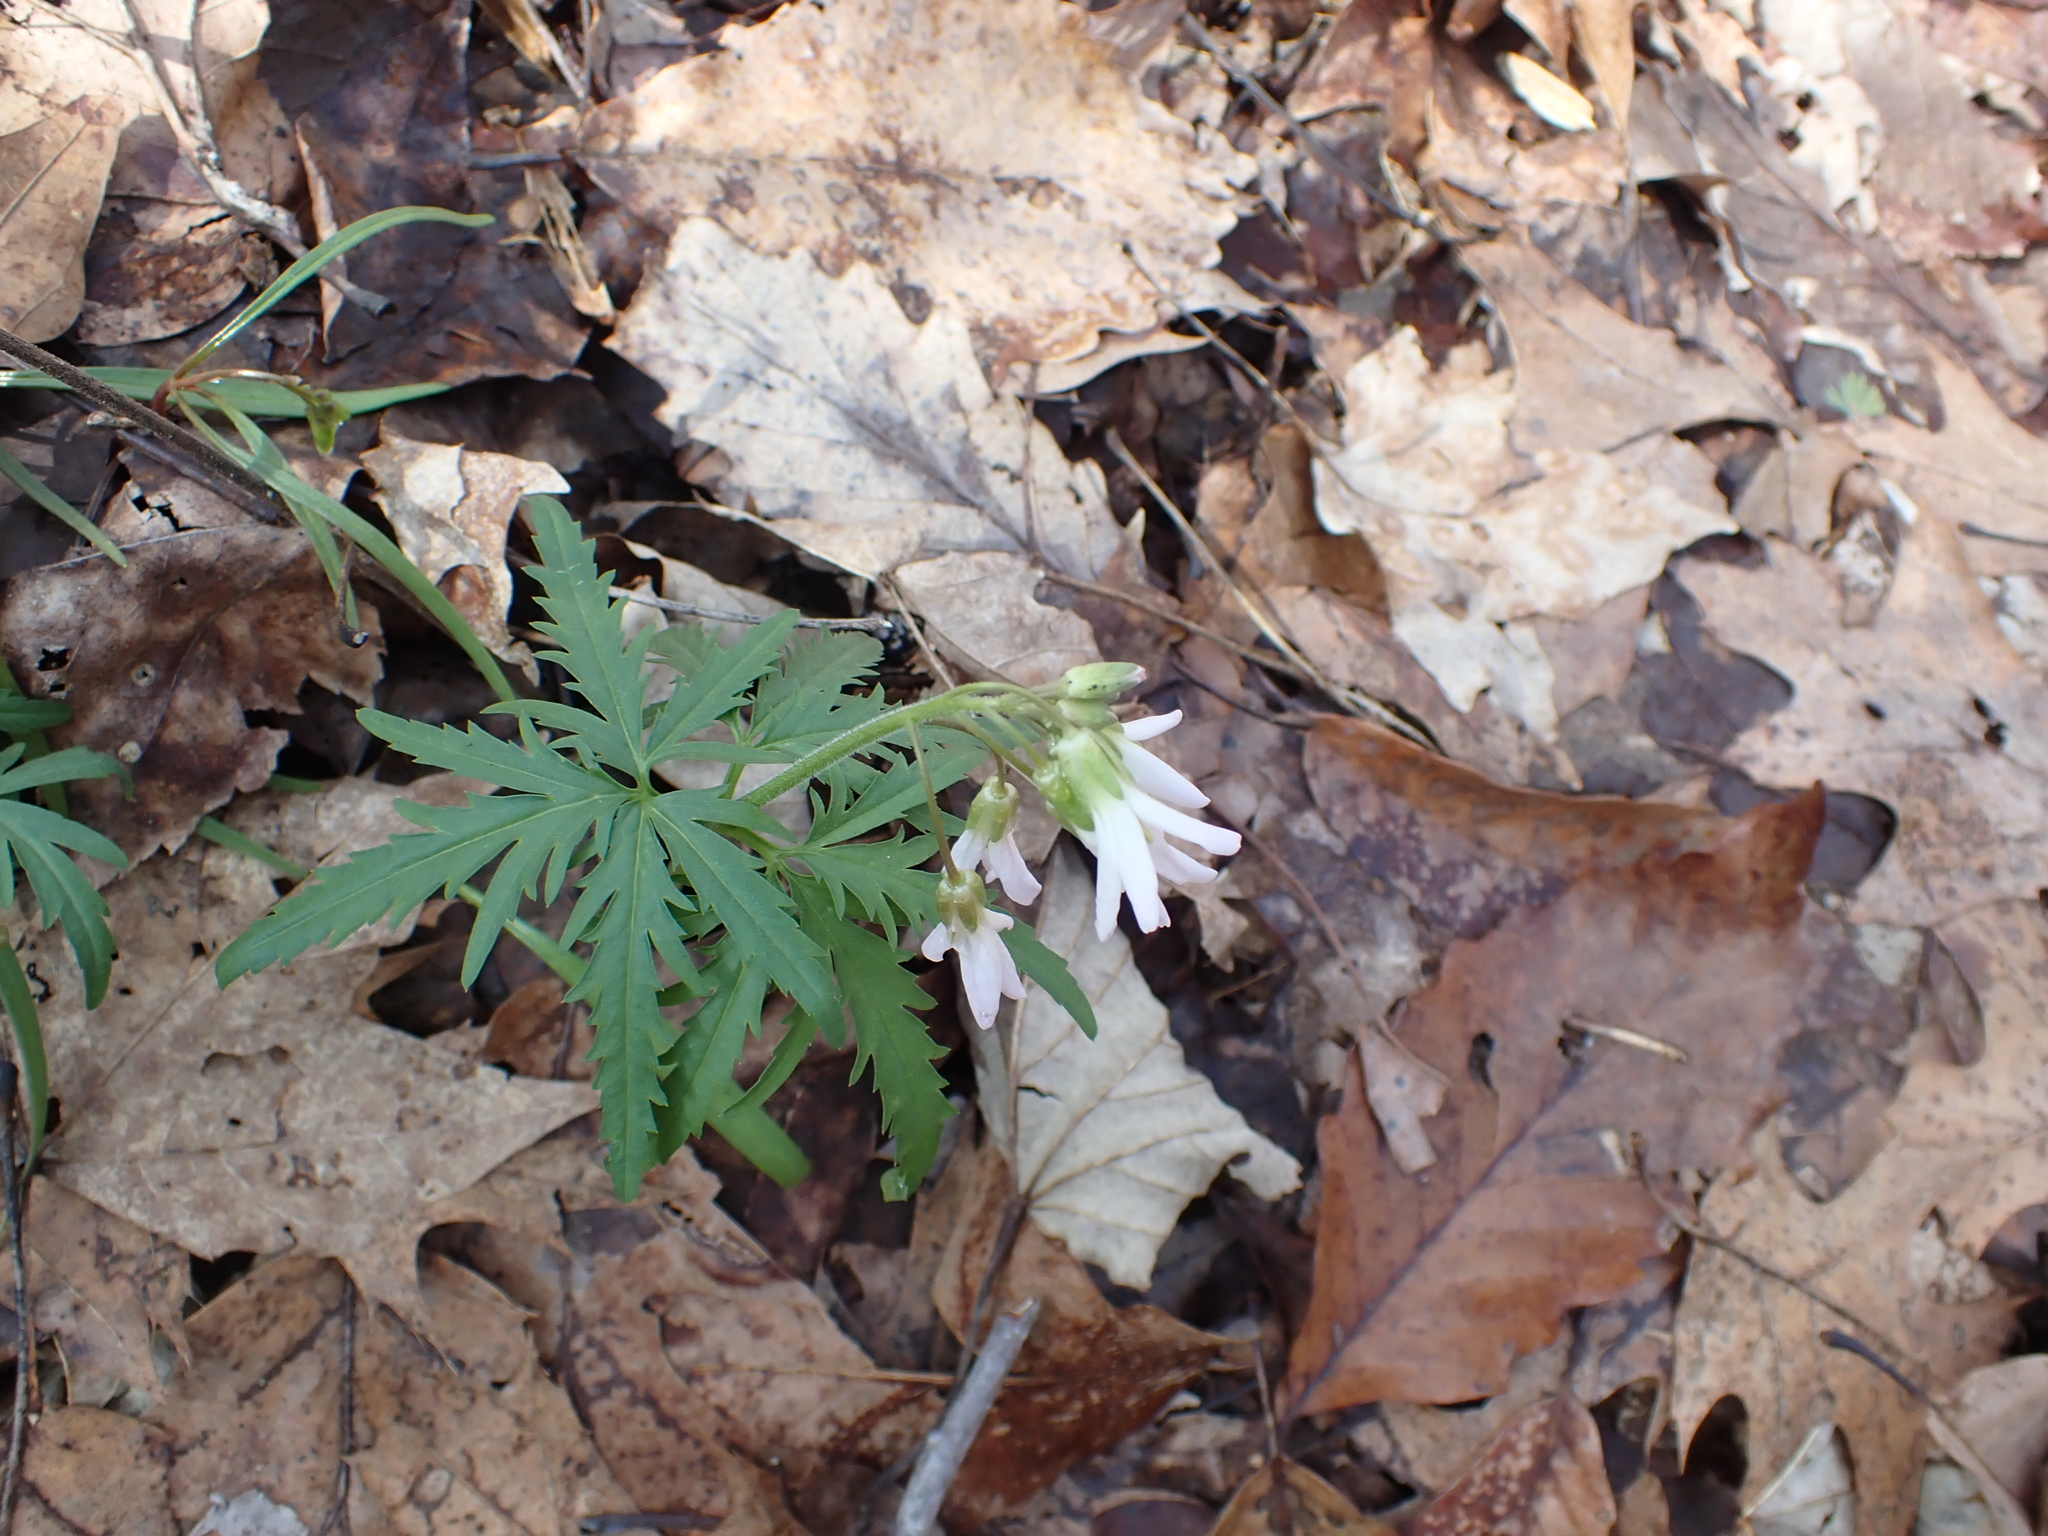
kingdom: Plantae
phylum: Tracheophyta
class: Magnoliopsida
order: Brassicales
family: Brassicaceae
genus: Cardamine
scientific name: Cardamine concatenata
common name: Cut-leaf toothcup
